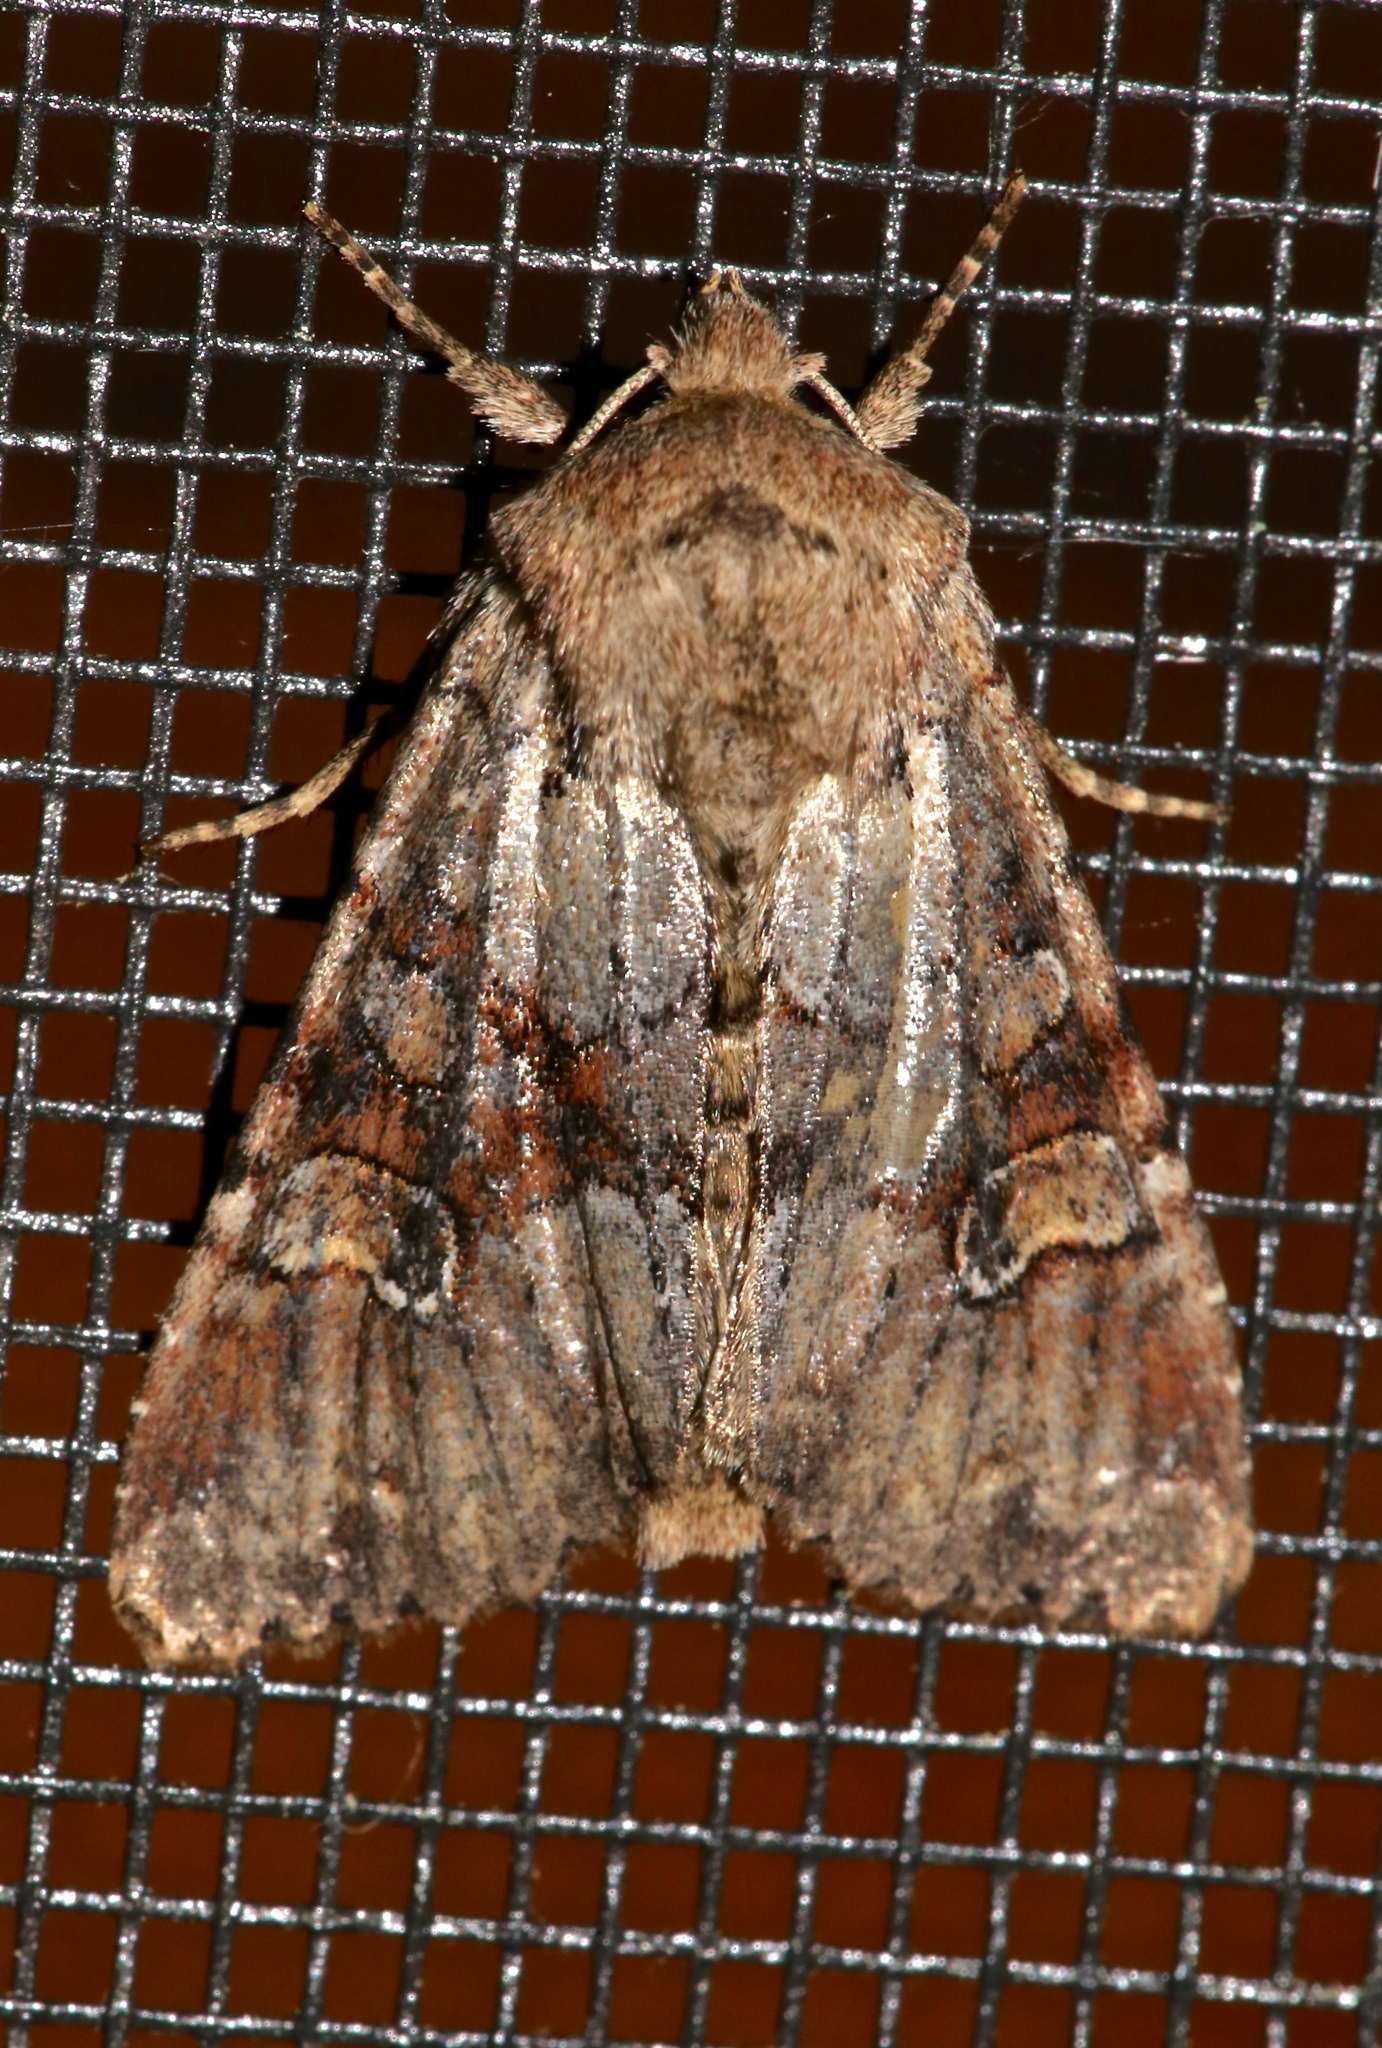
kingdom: Animalia
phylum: Arthropoda
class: Insecta
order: Lepidoptera
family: Noctuidae
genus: Apamea
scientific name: Apamea sordens
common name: Rustic shoulder-knot
